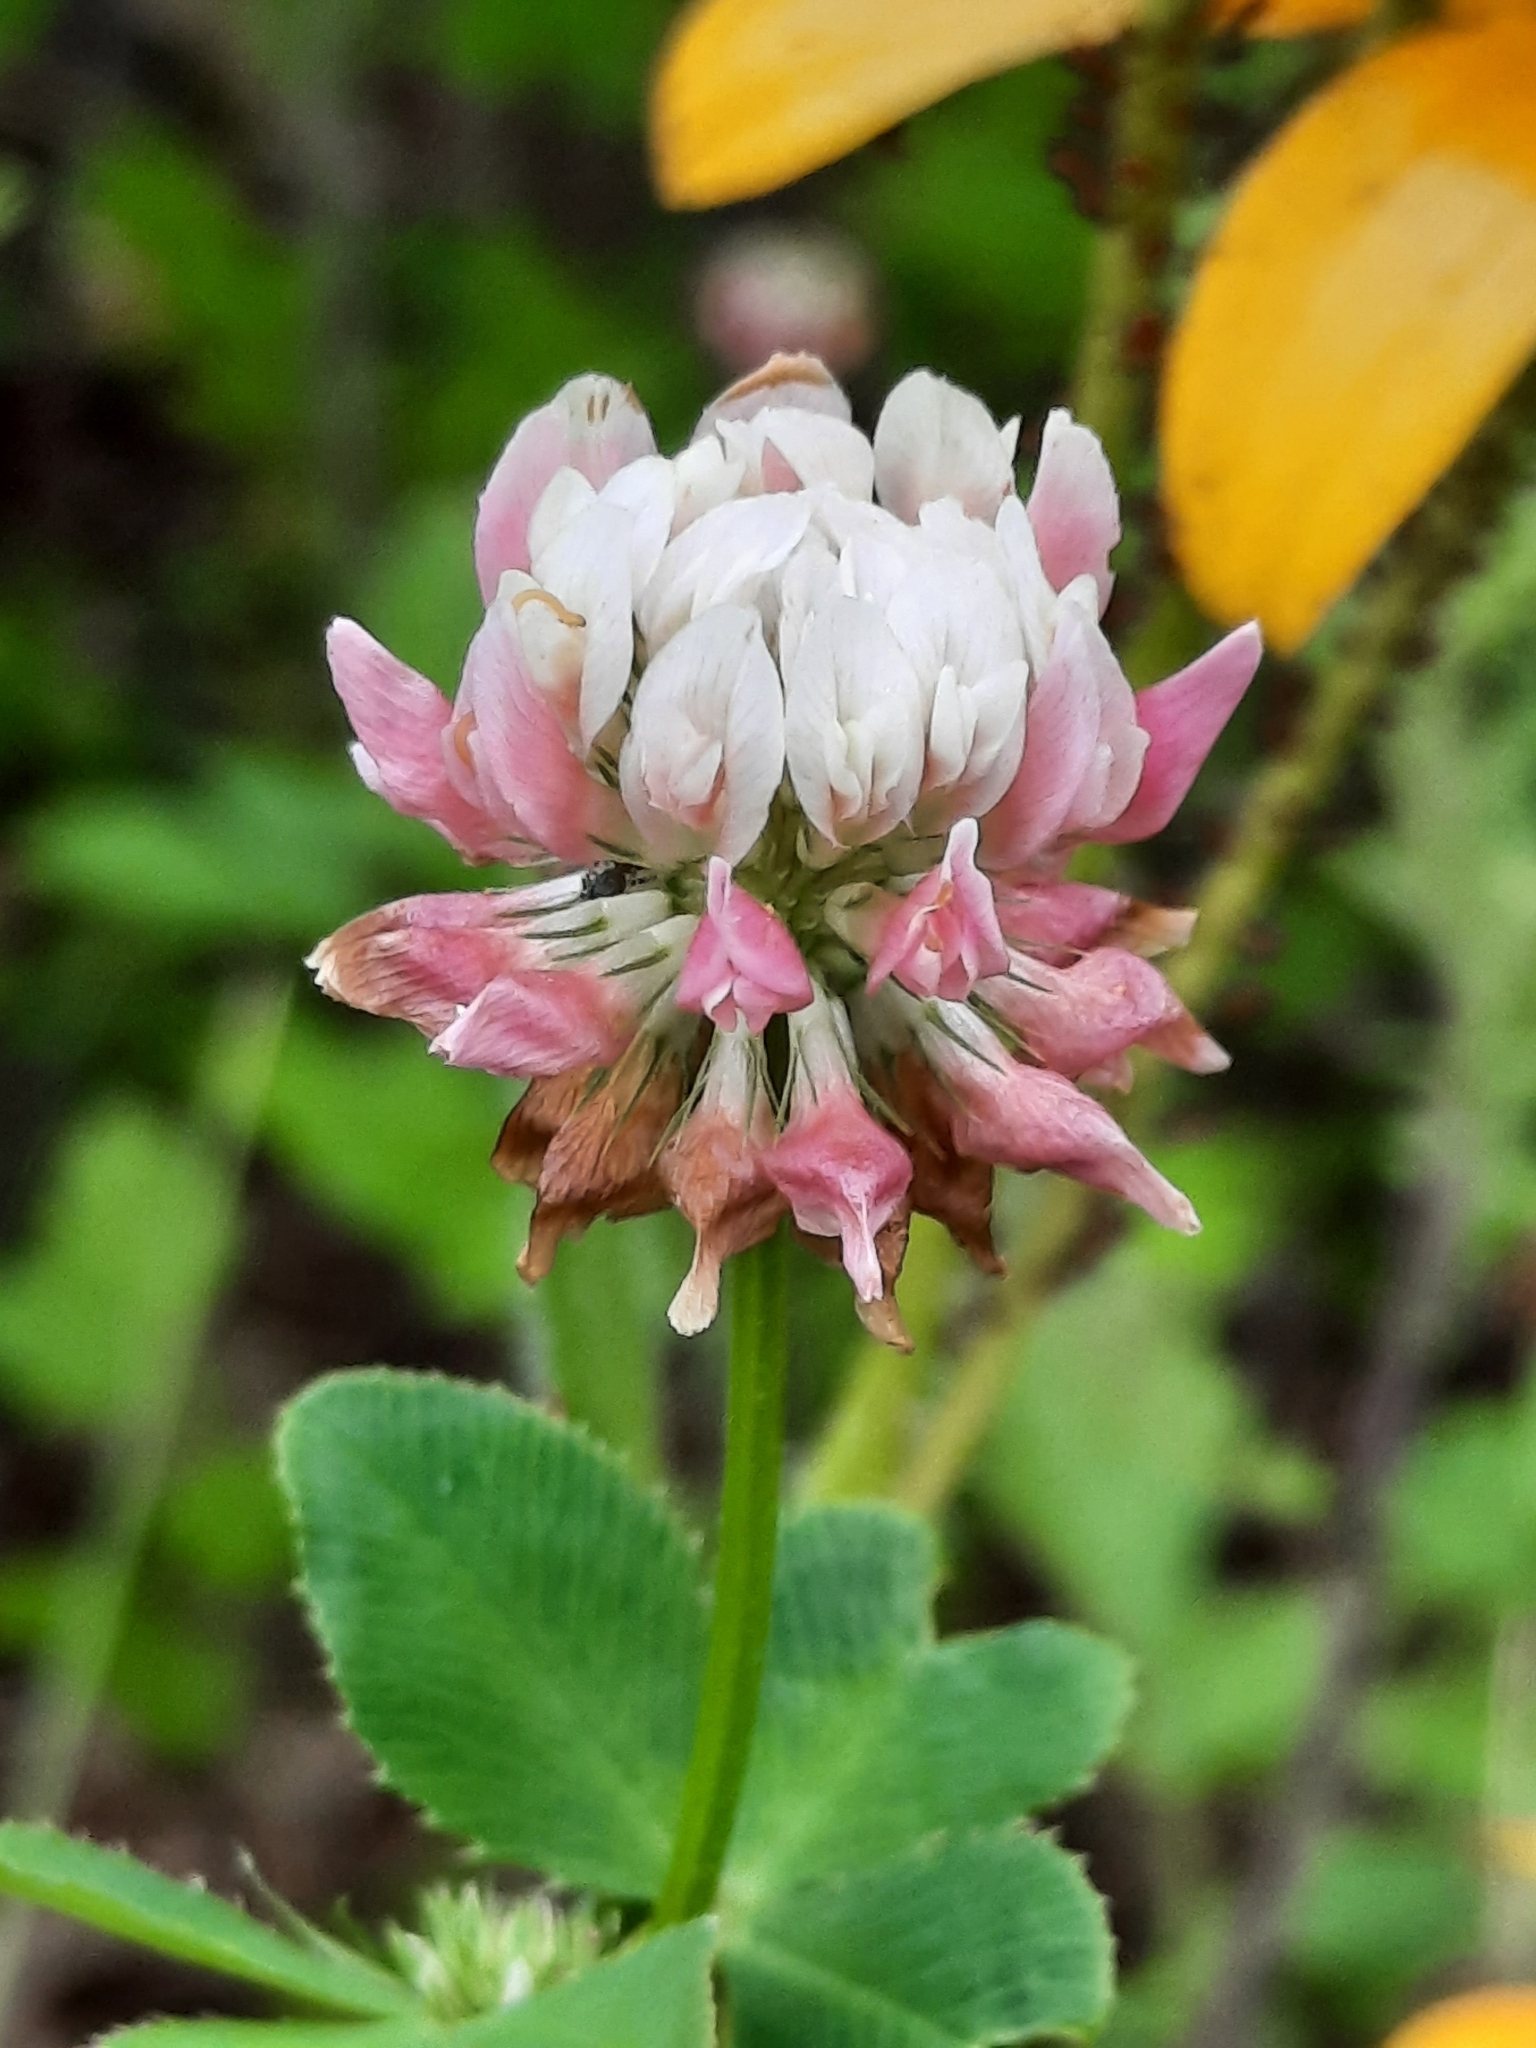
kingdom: Plantae
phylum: Tracheophyta
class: Magnoliopsida
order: Fabales
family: Fabaceae
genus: Trifolium
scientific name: Trifolium hybridum
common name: Alsike clover
